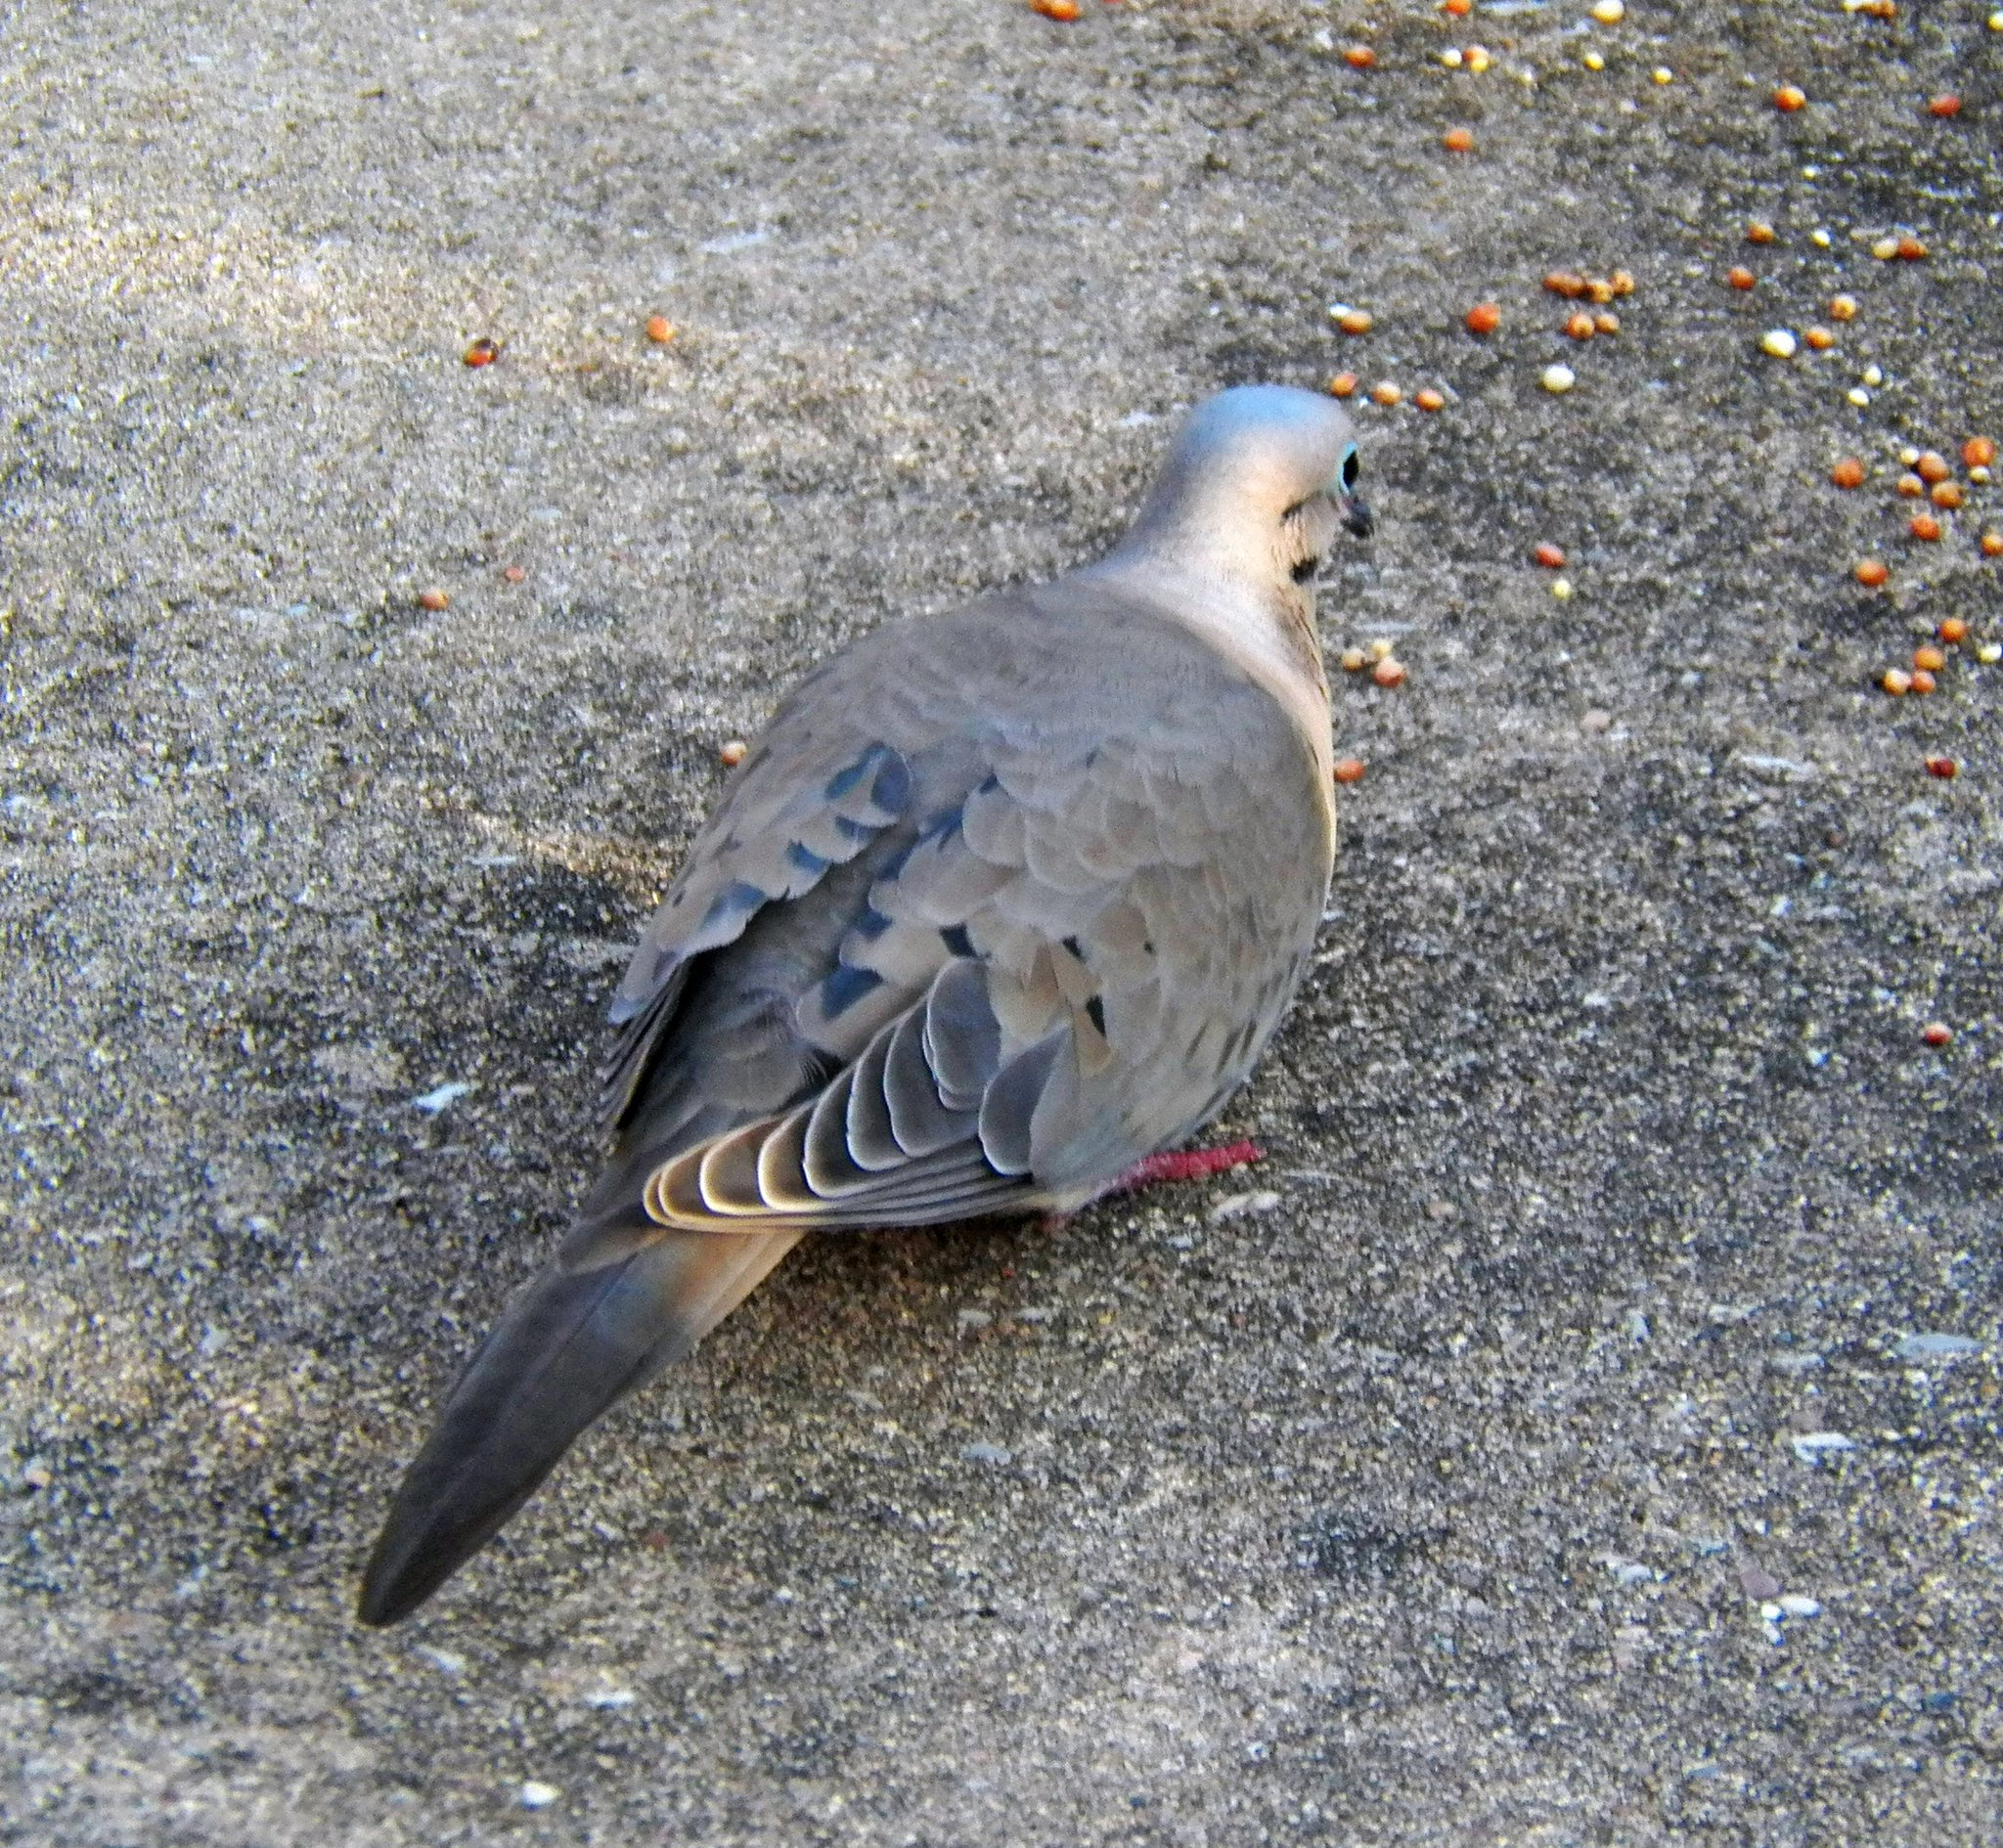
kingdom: Animalia
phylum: Chordata
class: Aves
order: Columbiformes
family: Columbidae
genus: Zenaida
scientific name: Zenaida macroura
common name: Mourning dove
